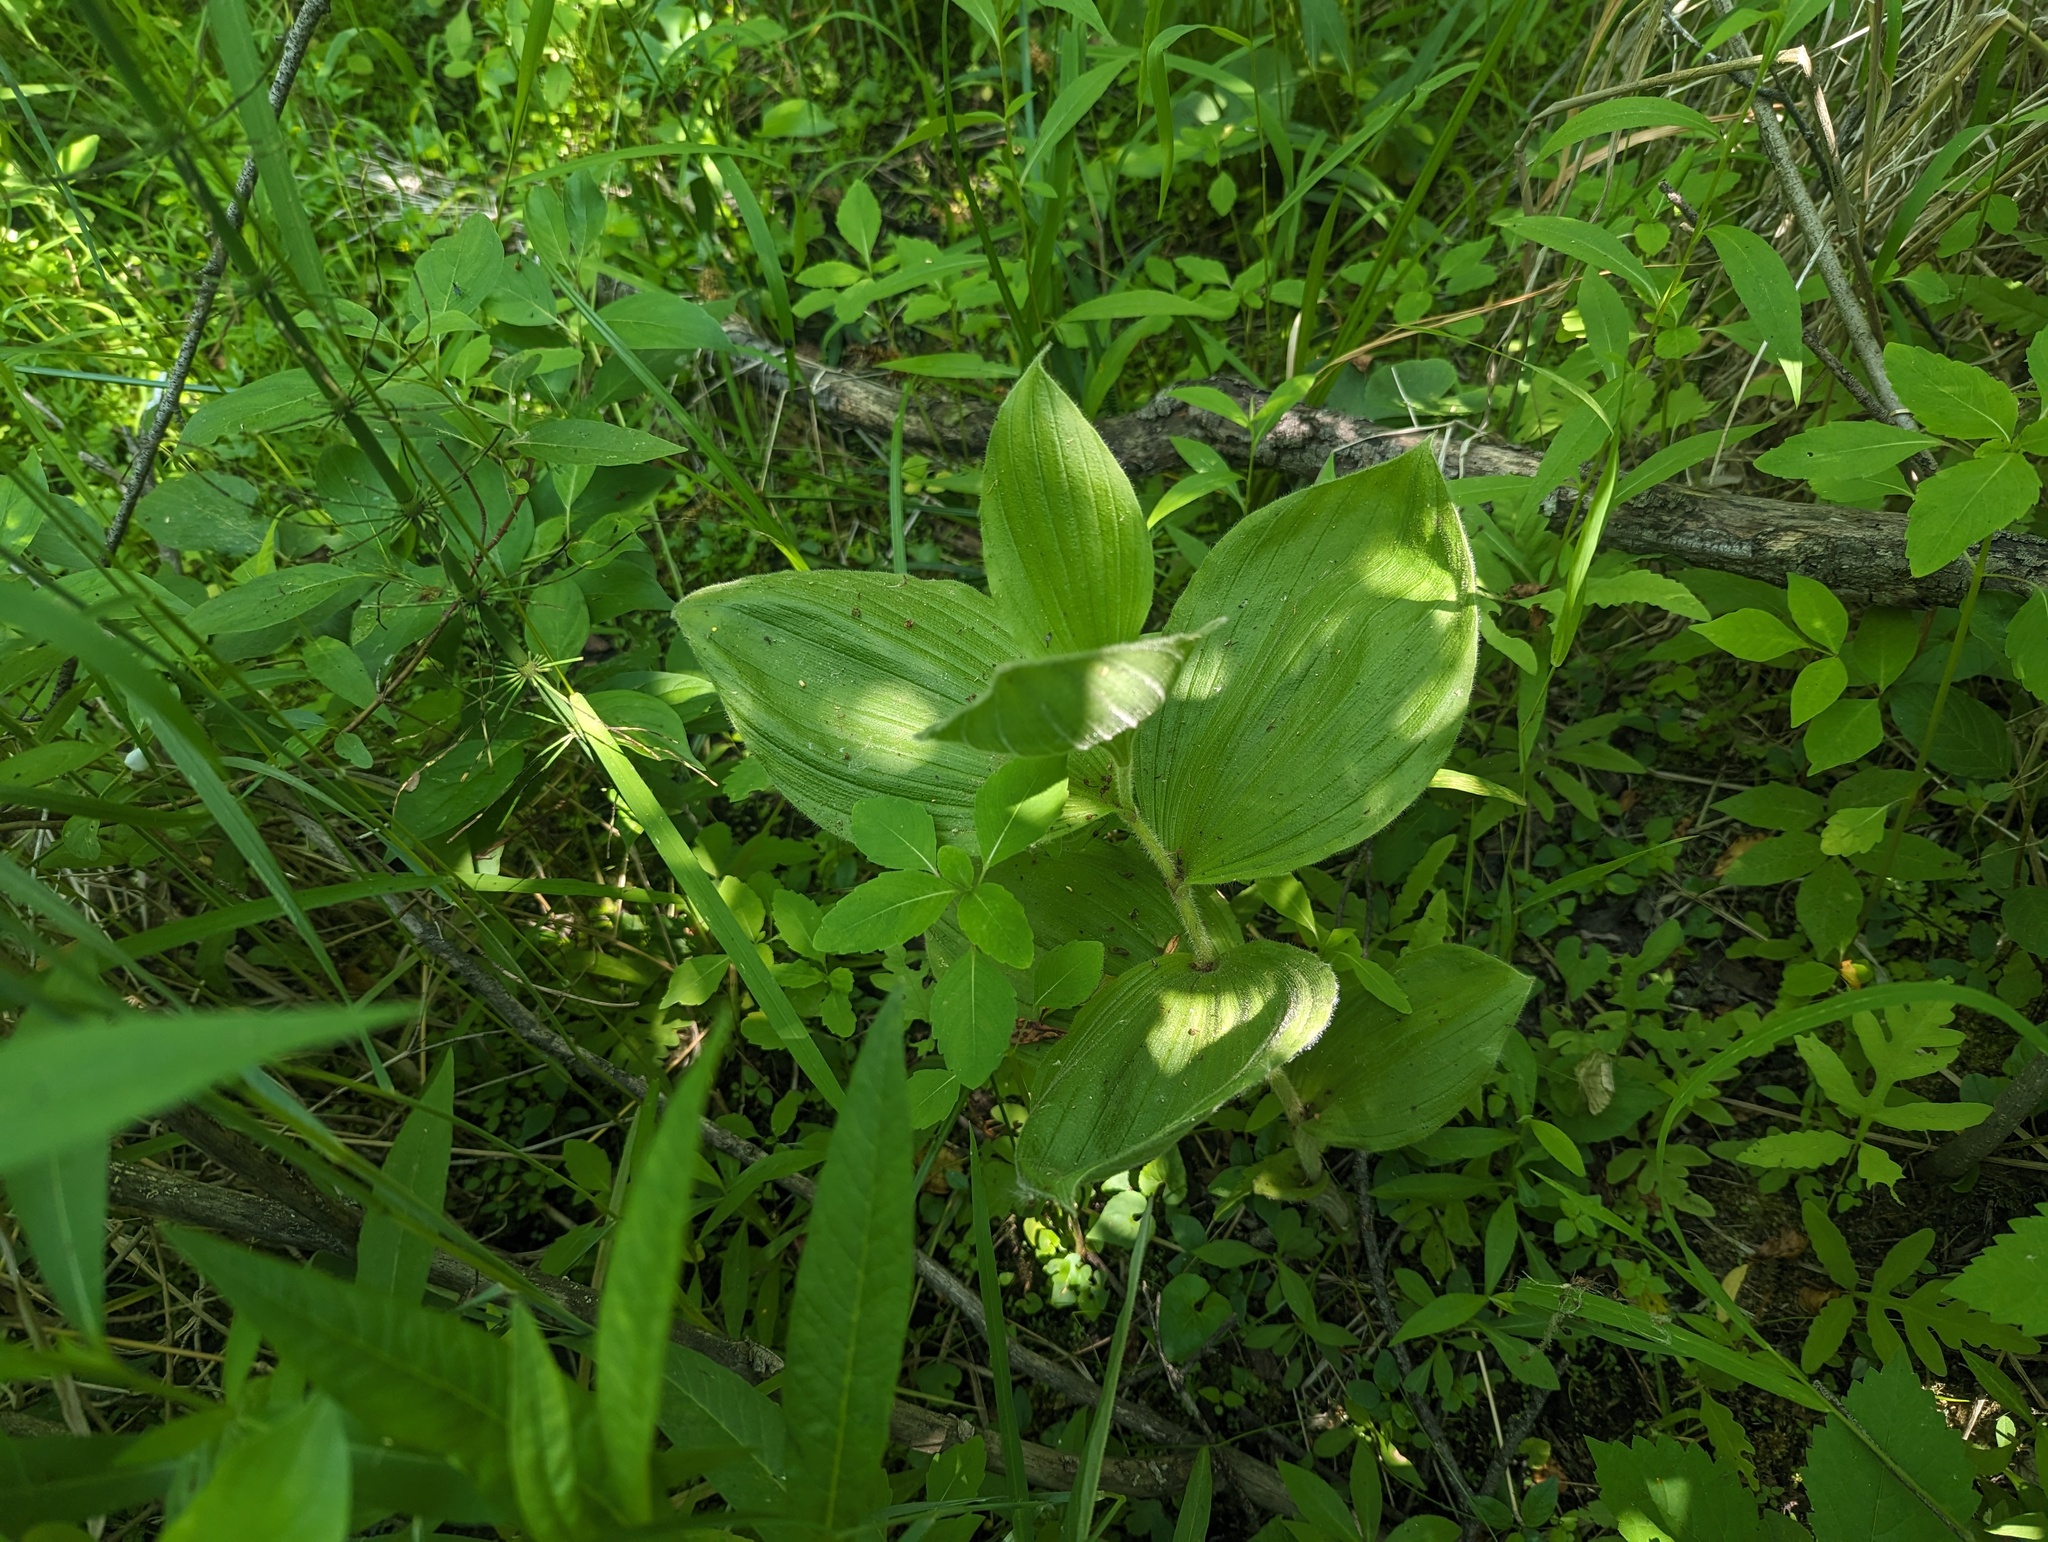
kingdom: Plantae
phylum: Tracheophyta
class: Liliopsida
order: Asparagales
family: Orchidaceae
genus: Cypripedium
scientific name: Cypripedium reginae
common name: Queen lady's-slipper
